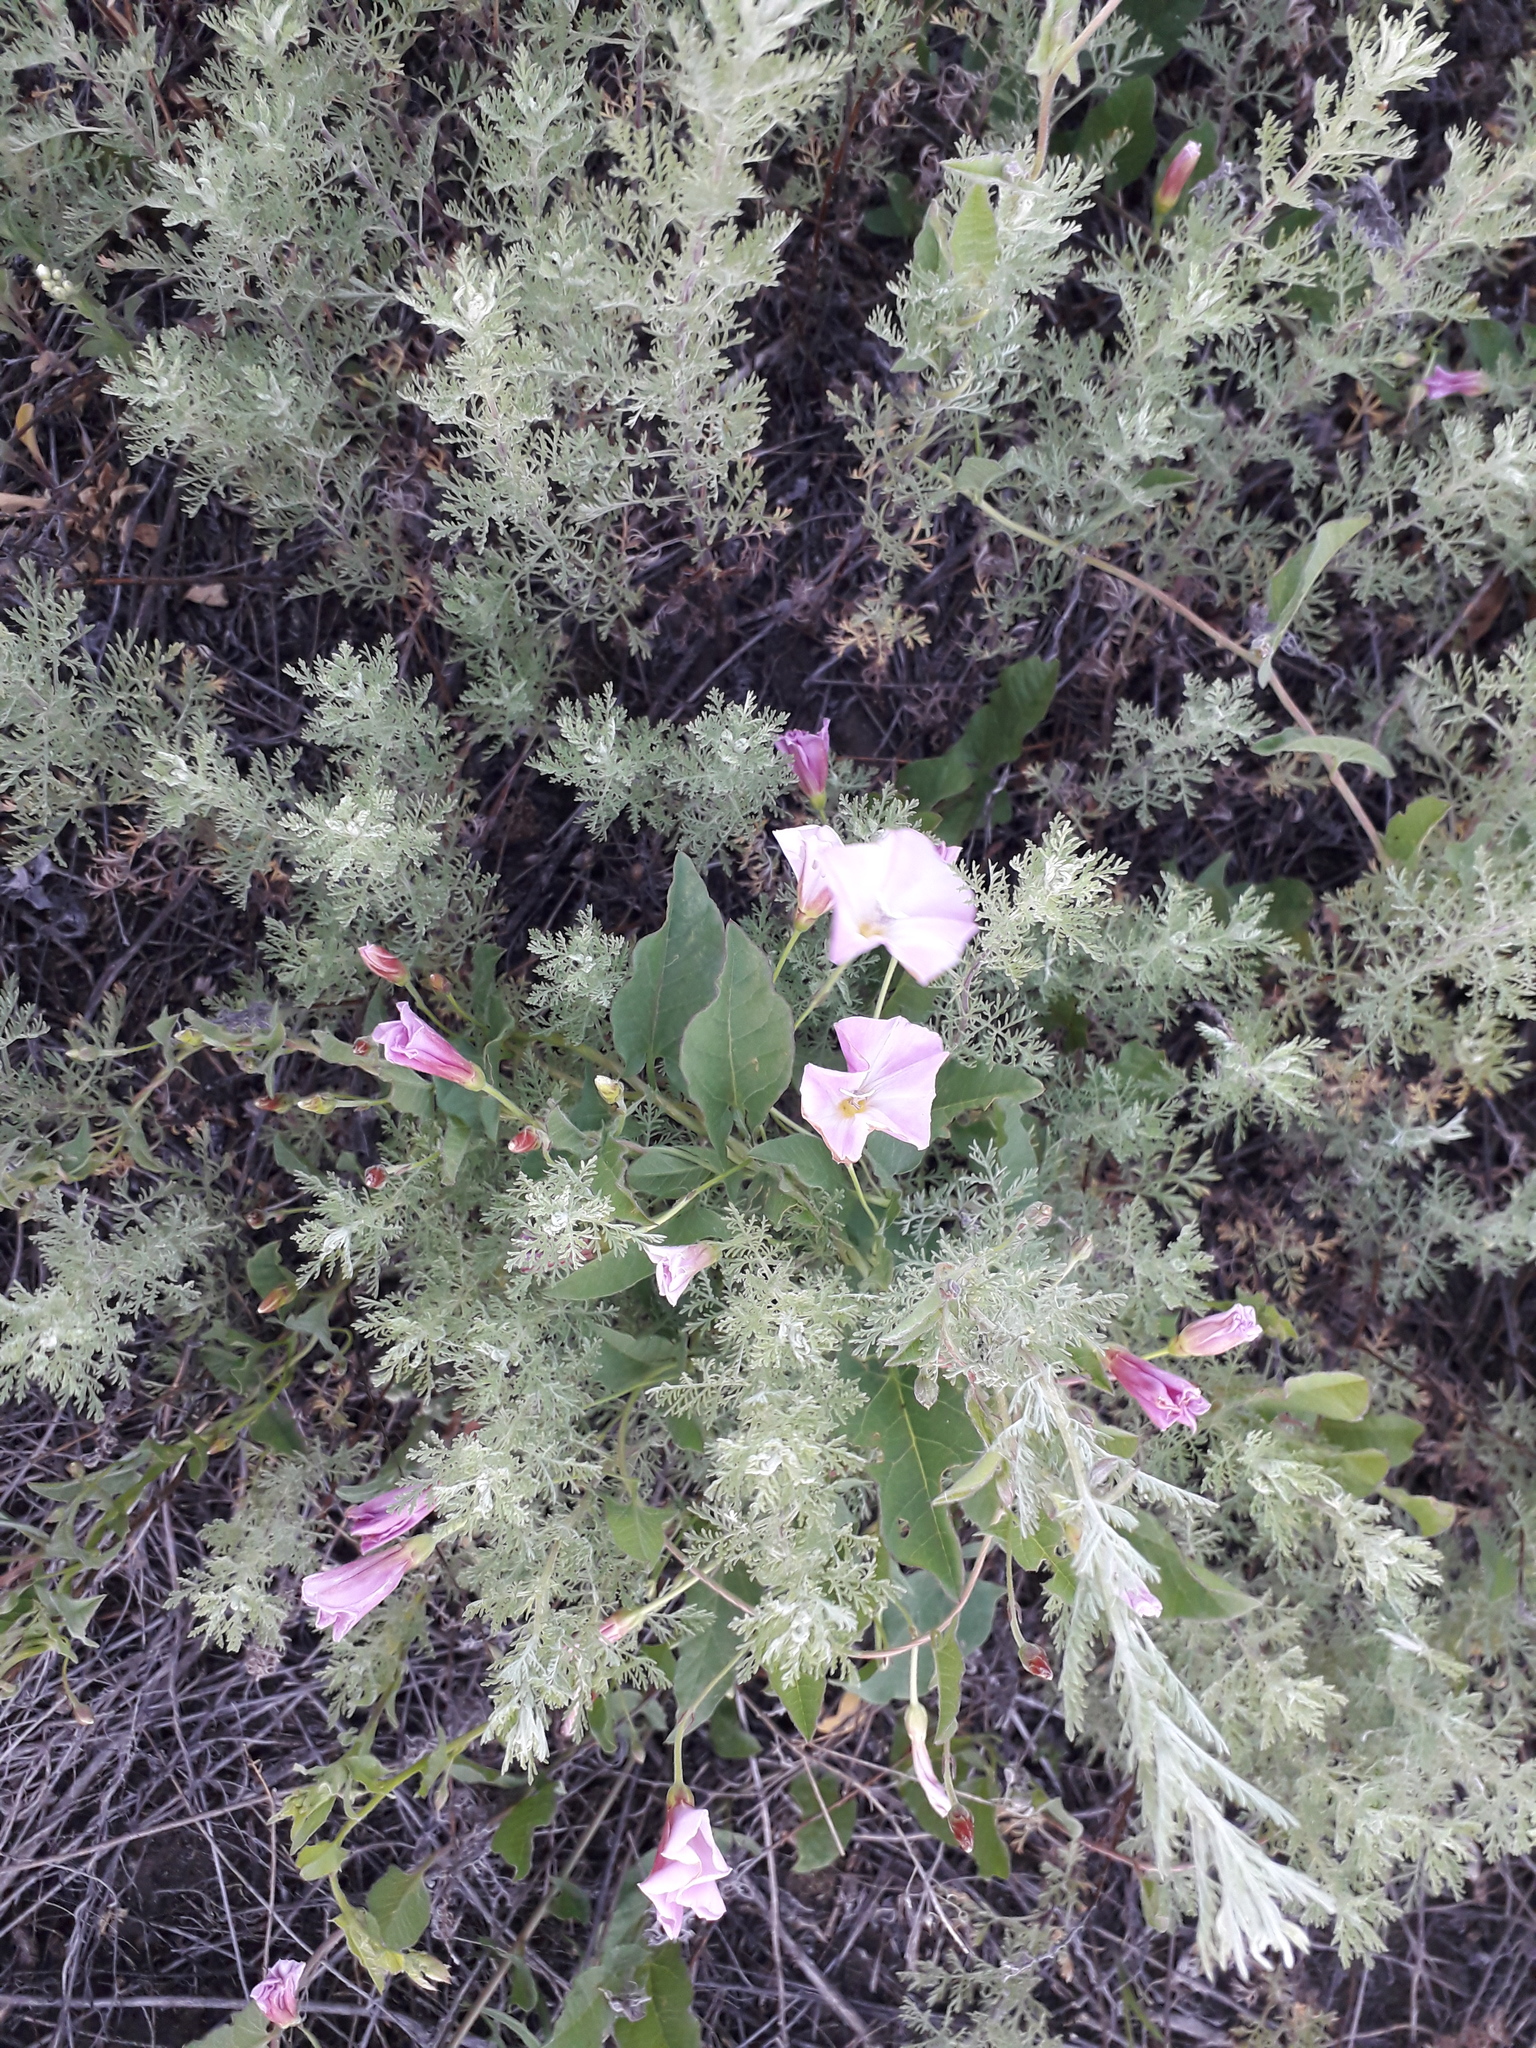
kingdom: Plantae
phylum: Tracheophyta
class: Magnoliopsida
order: Solanales
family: Convolvulaceae
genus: Convolvulus
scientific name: Convolvulus arvensis
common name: Field bindweed
